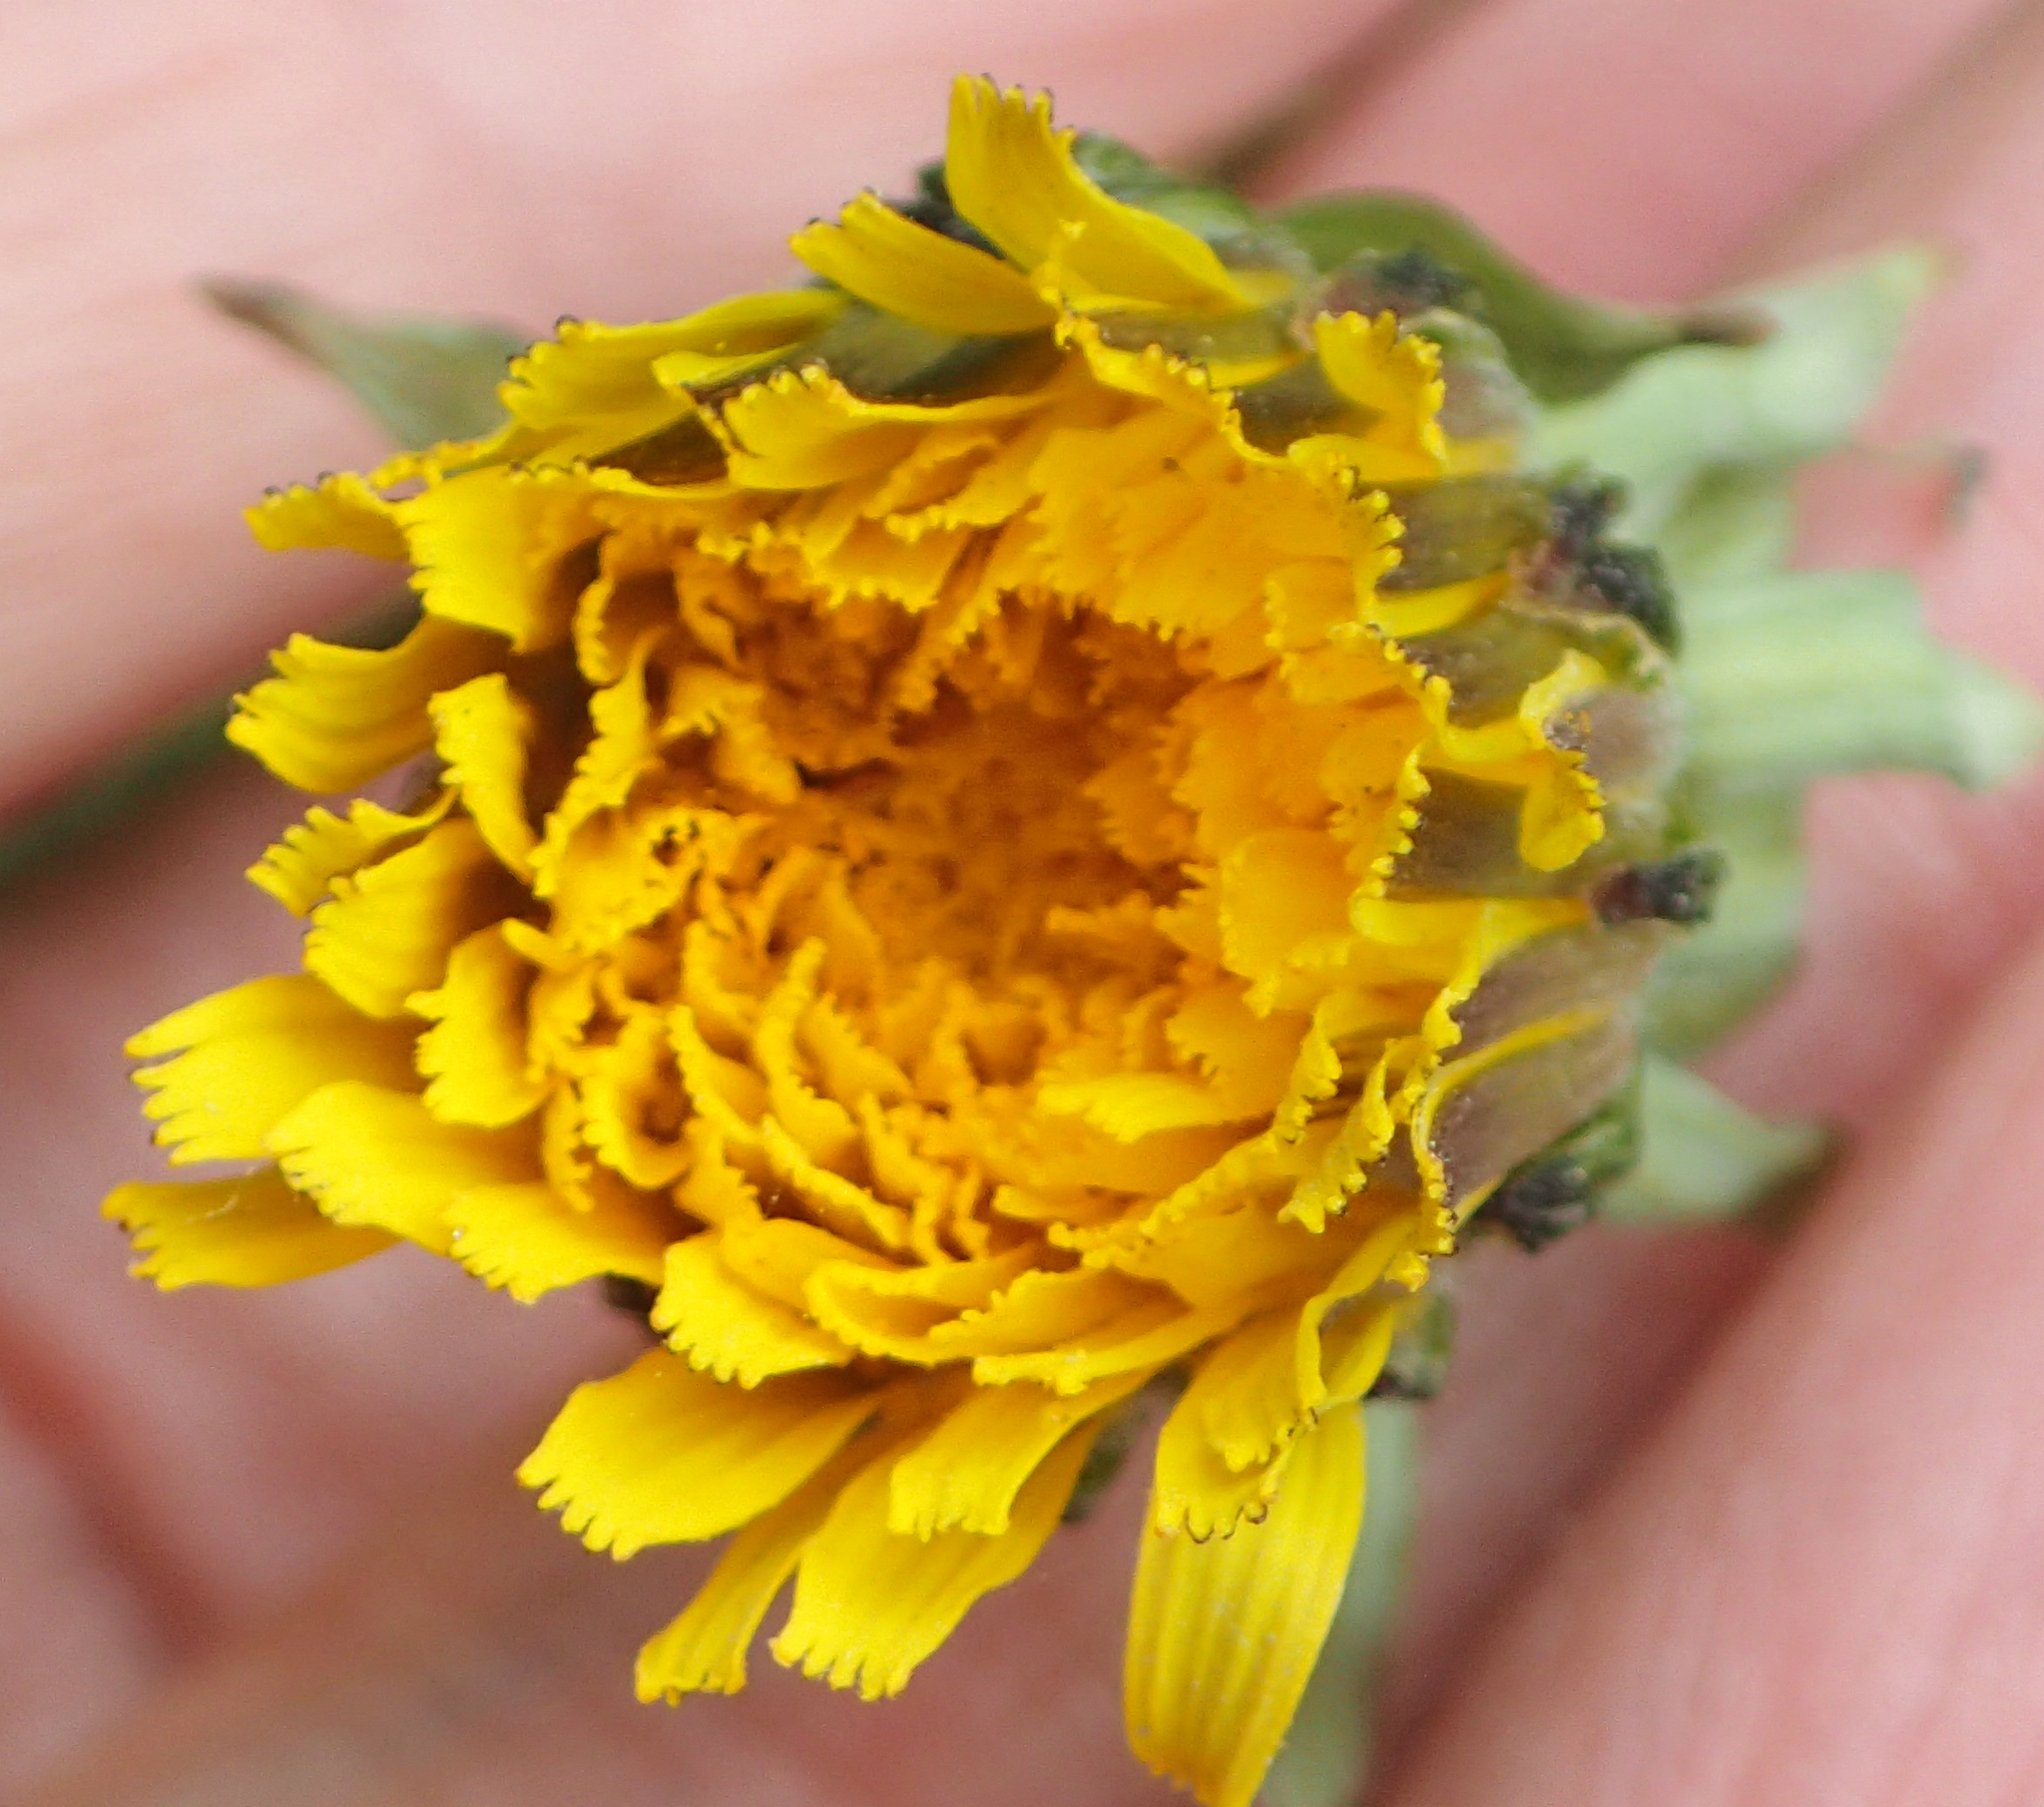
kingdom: Plantae
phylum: Tracheophyta
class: Magnoliopsida
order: Asterales
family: Asteraceae
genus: Taraxacum
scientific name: Taraxacum ceratophorum
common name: Horn-bearing dandelion
